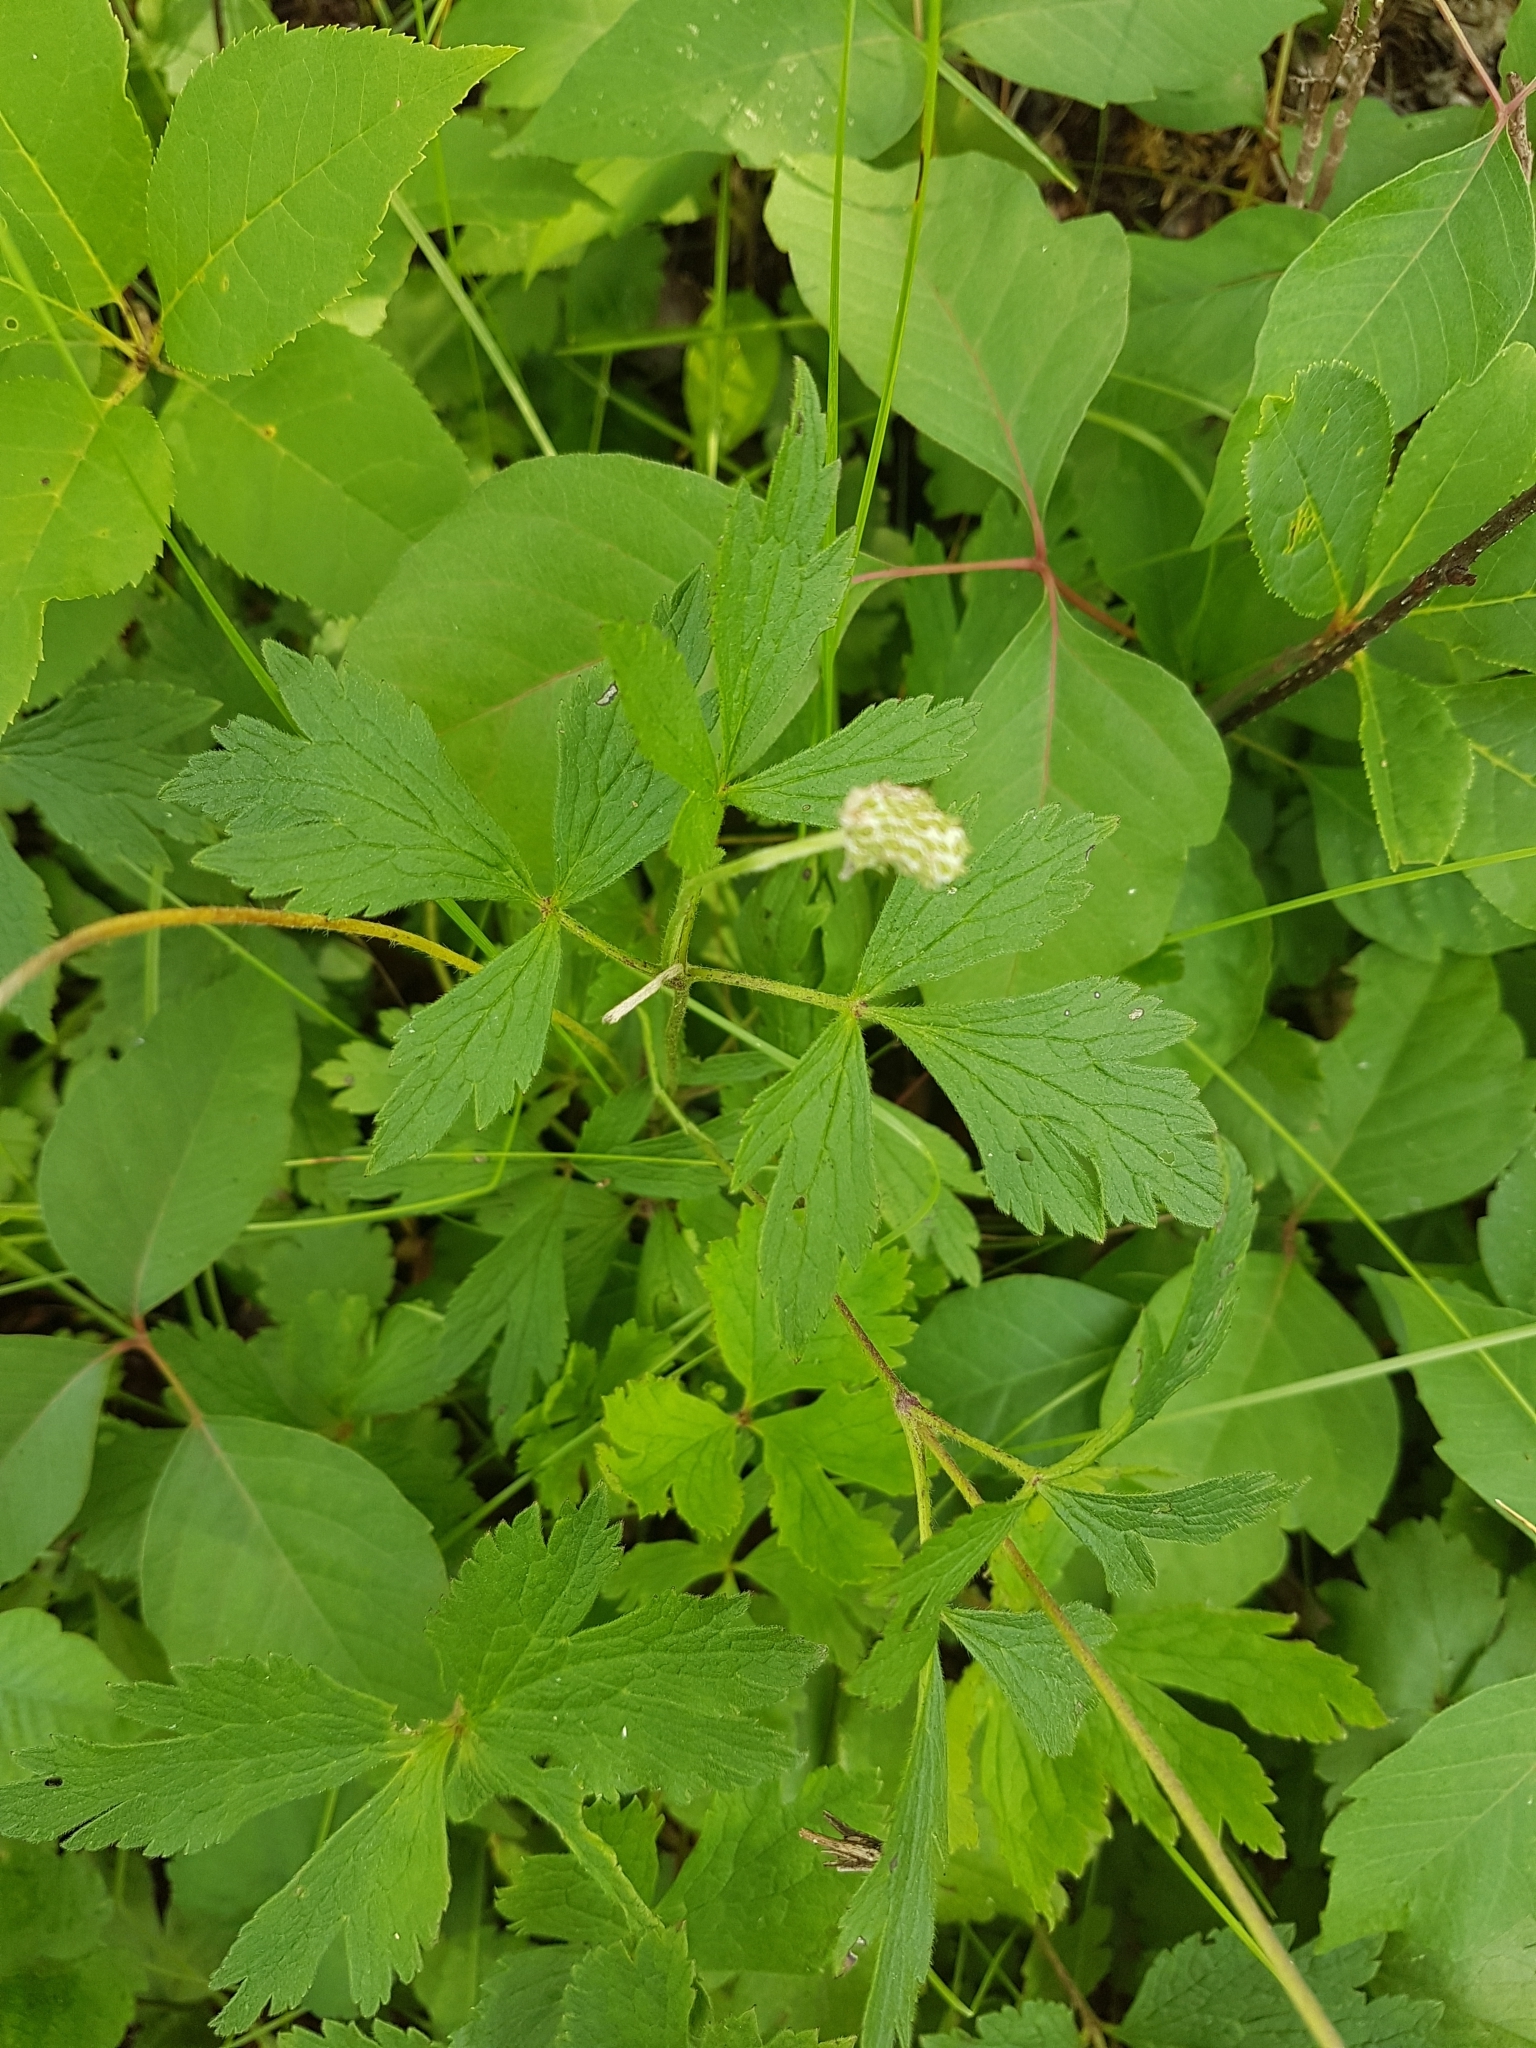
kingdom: Plantae
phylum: Tracheophyta
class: Magnoliopsida
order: Ranunculales
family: Ranunculaceae
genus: Anemone
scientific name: Anemone virginiana
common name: Tall anemone
